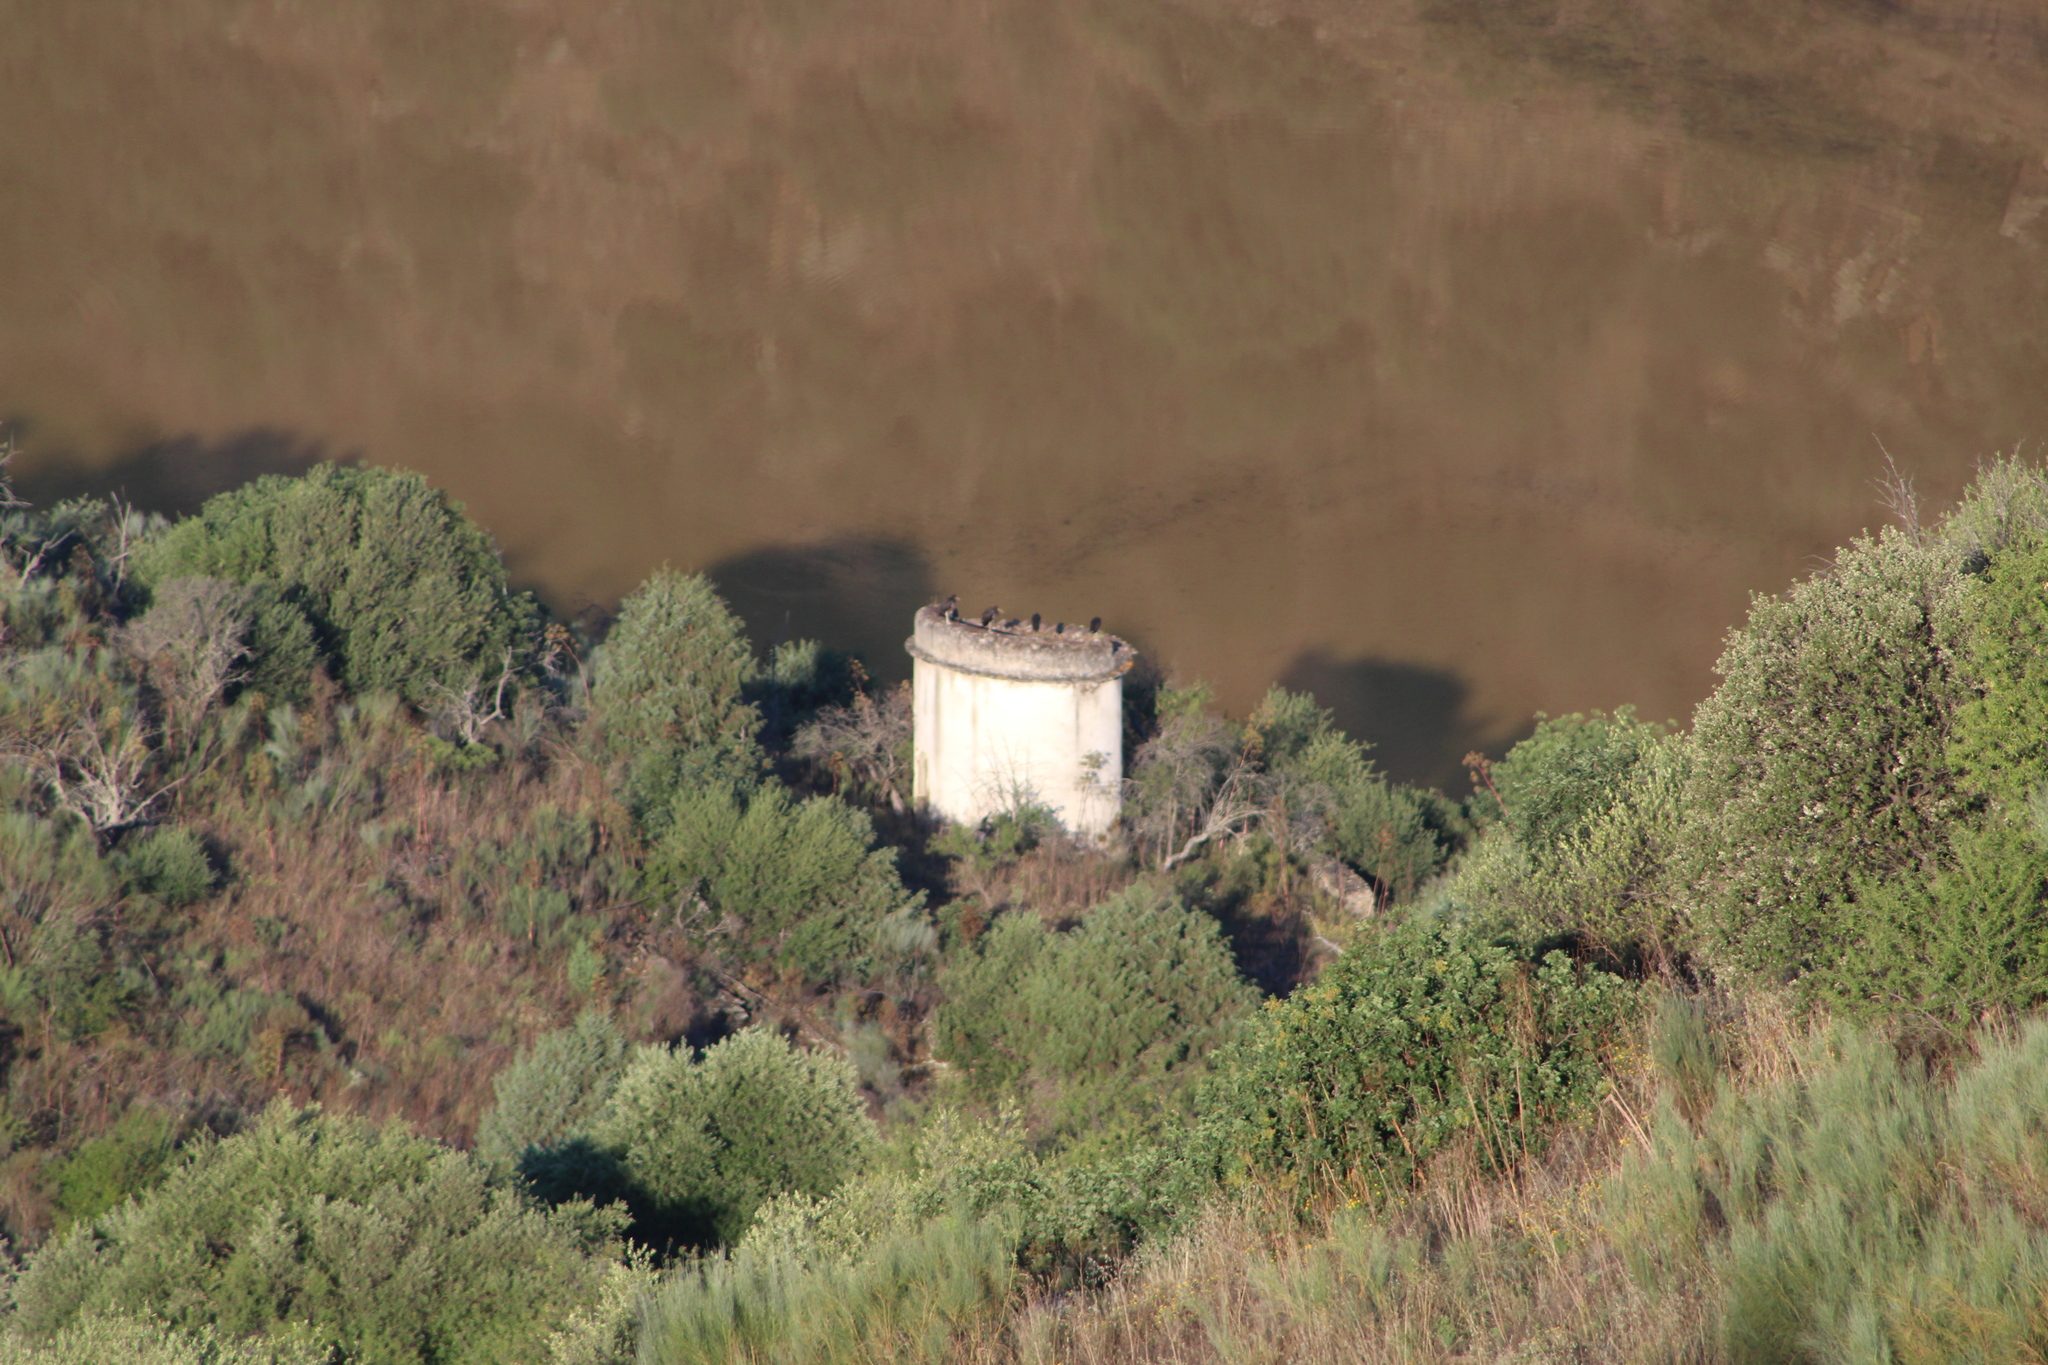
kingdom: Animalia
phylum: Chordata
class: Aves
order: Ciconiiformes
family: Ciconiidae
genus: Ciconia
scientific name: Ciconia nigra
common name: Black stork
